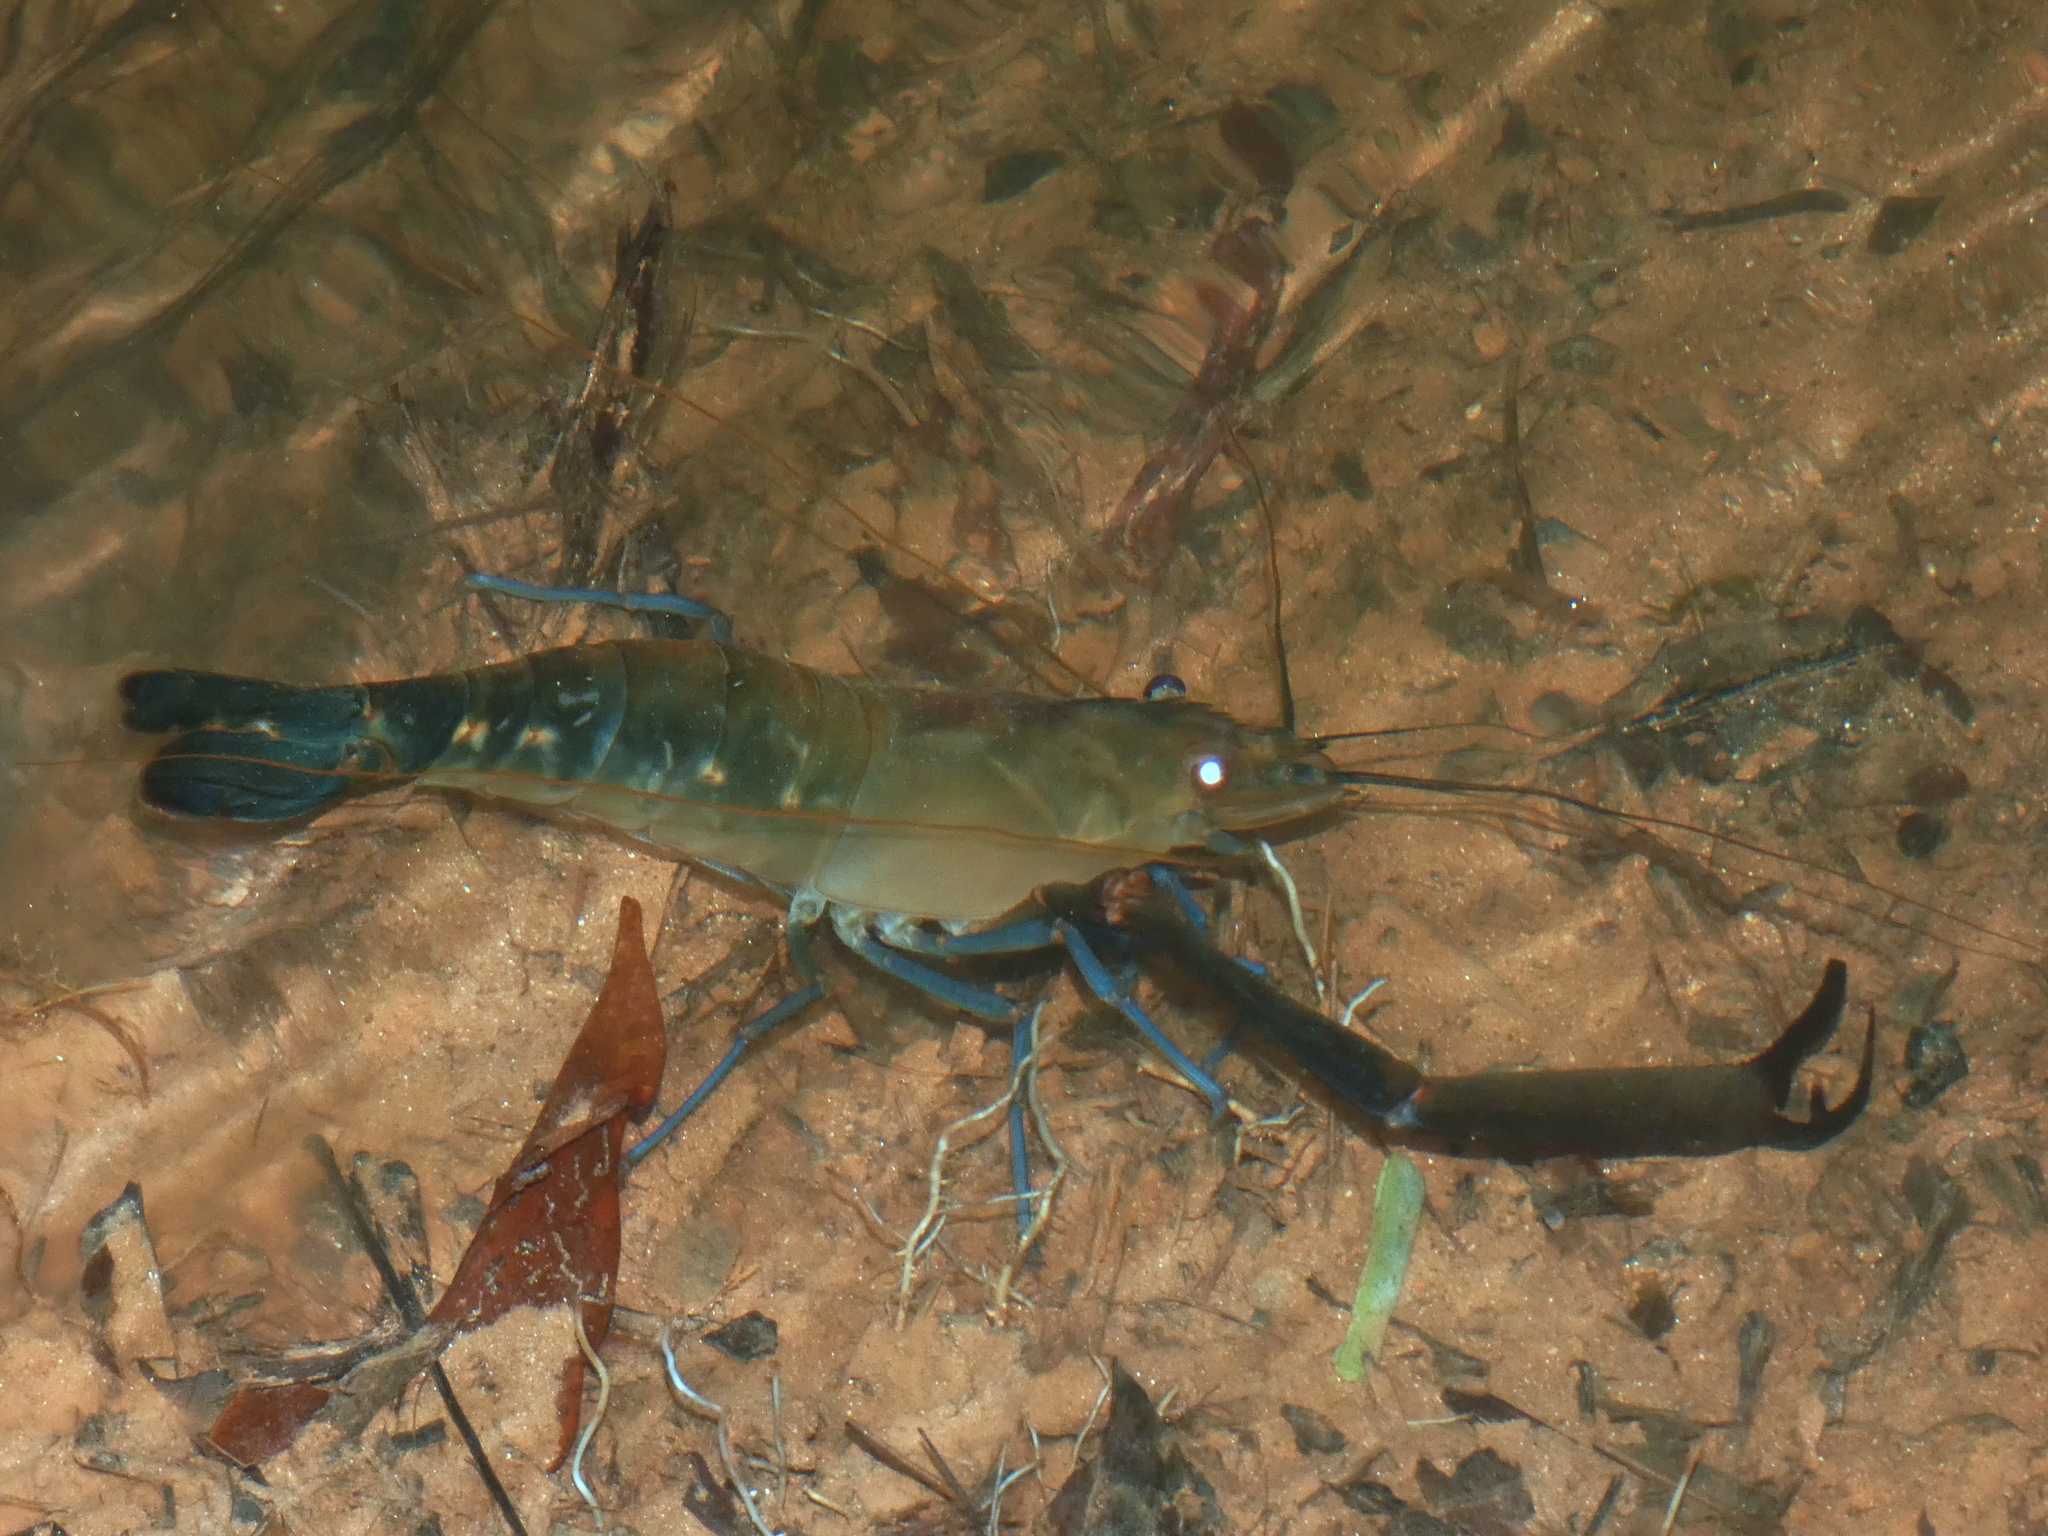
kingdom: Animalia
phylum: Arthropoda
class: Malacostraca
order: Decapoda
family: Palaemonidae
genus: Macrobrachium
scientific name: Macrobrachium lar
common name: Monkey river prawn
